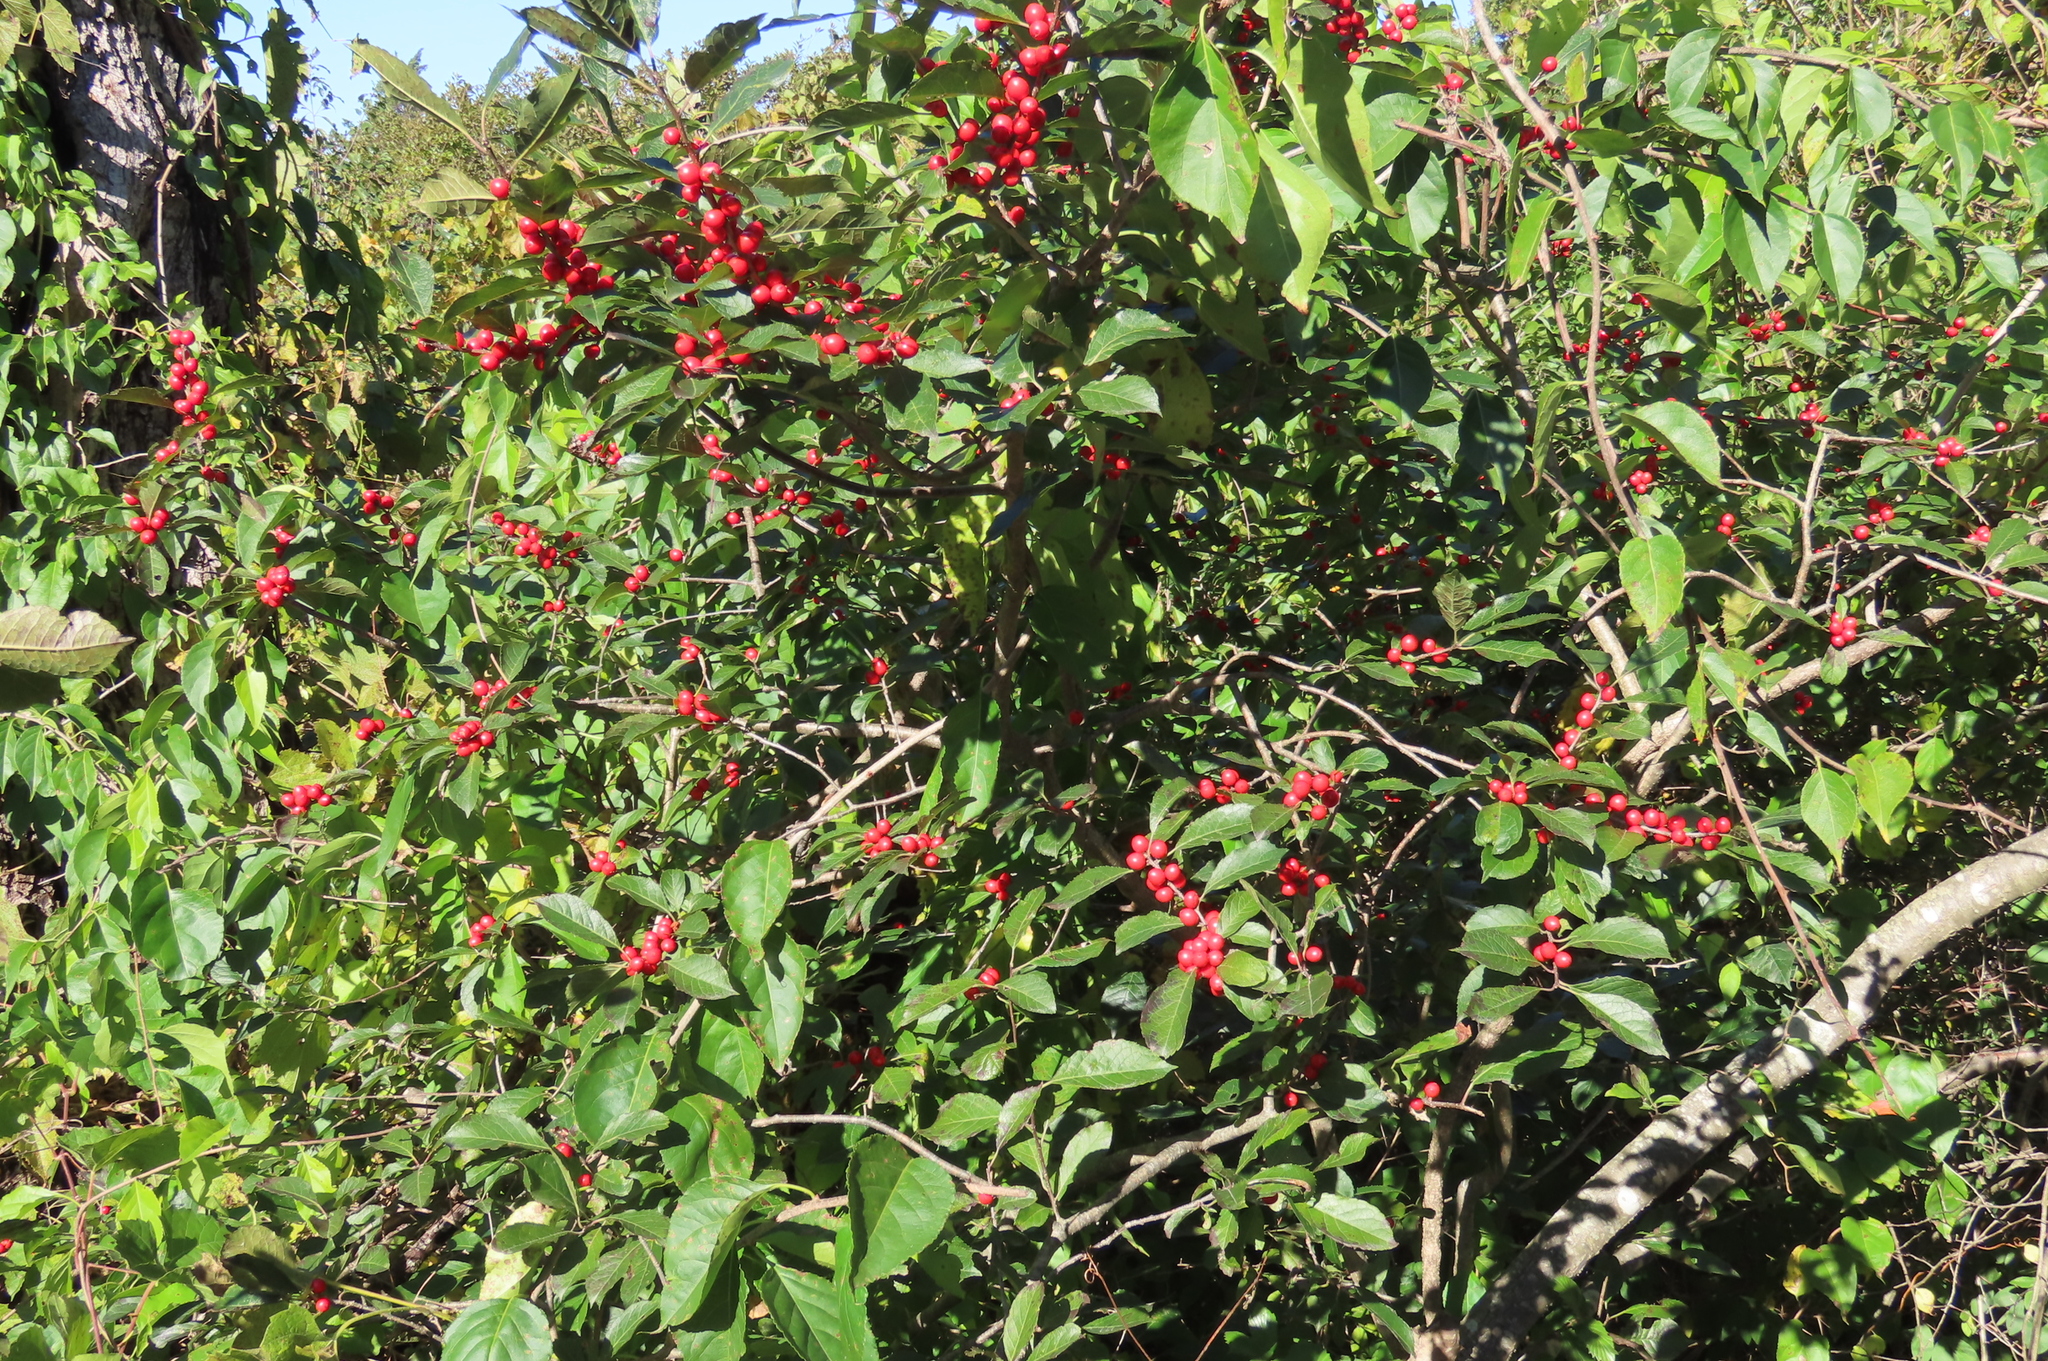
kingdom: Plantae
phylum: Tracheophyta
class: Magnoliopsida
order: Aquifoliales
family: Aquifoliaceae
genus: Ilex
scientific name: Ilex verticillata
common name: Virginia winterberry
